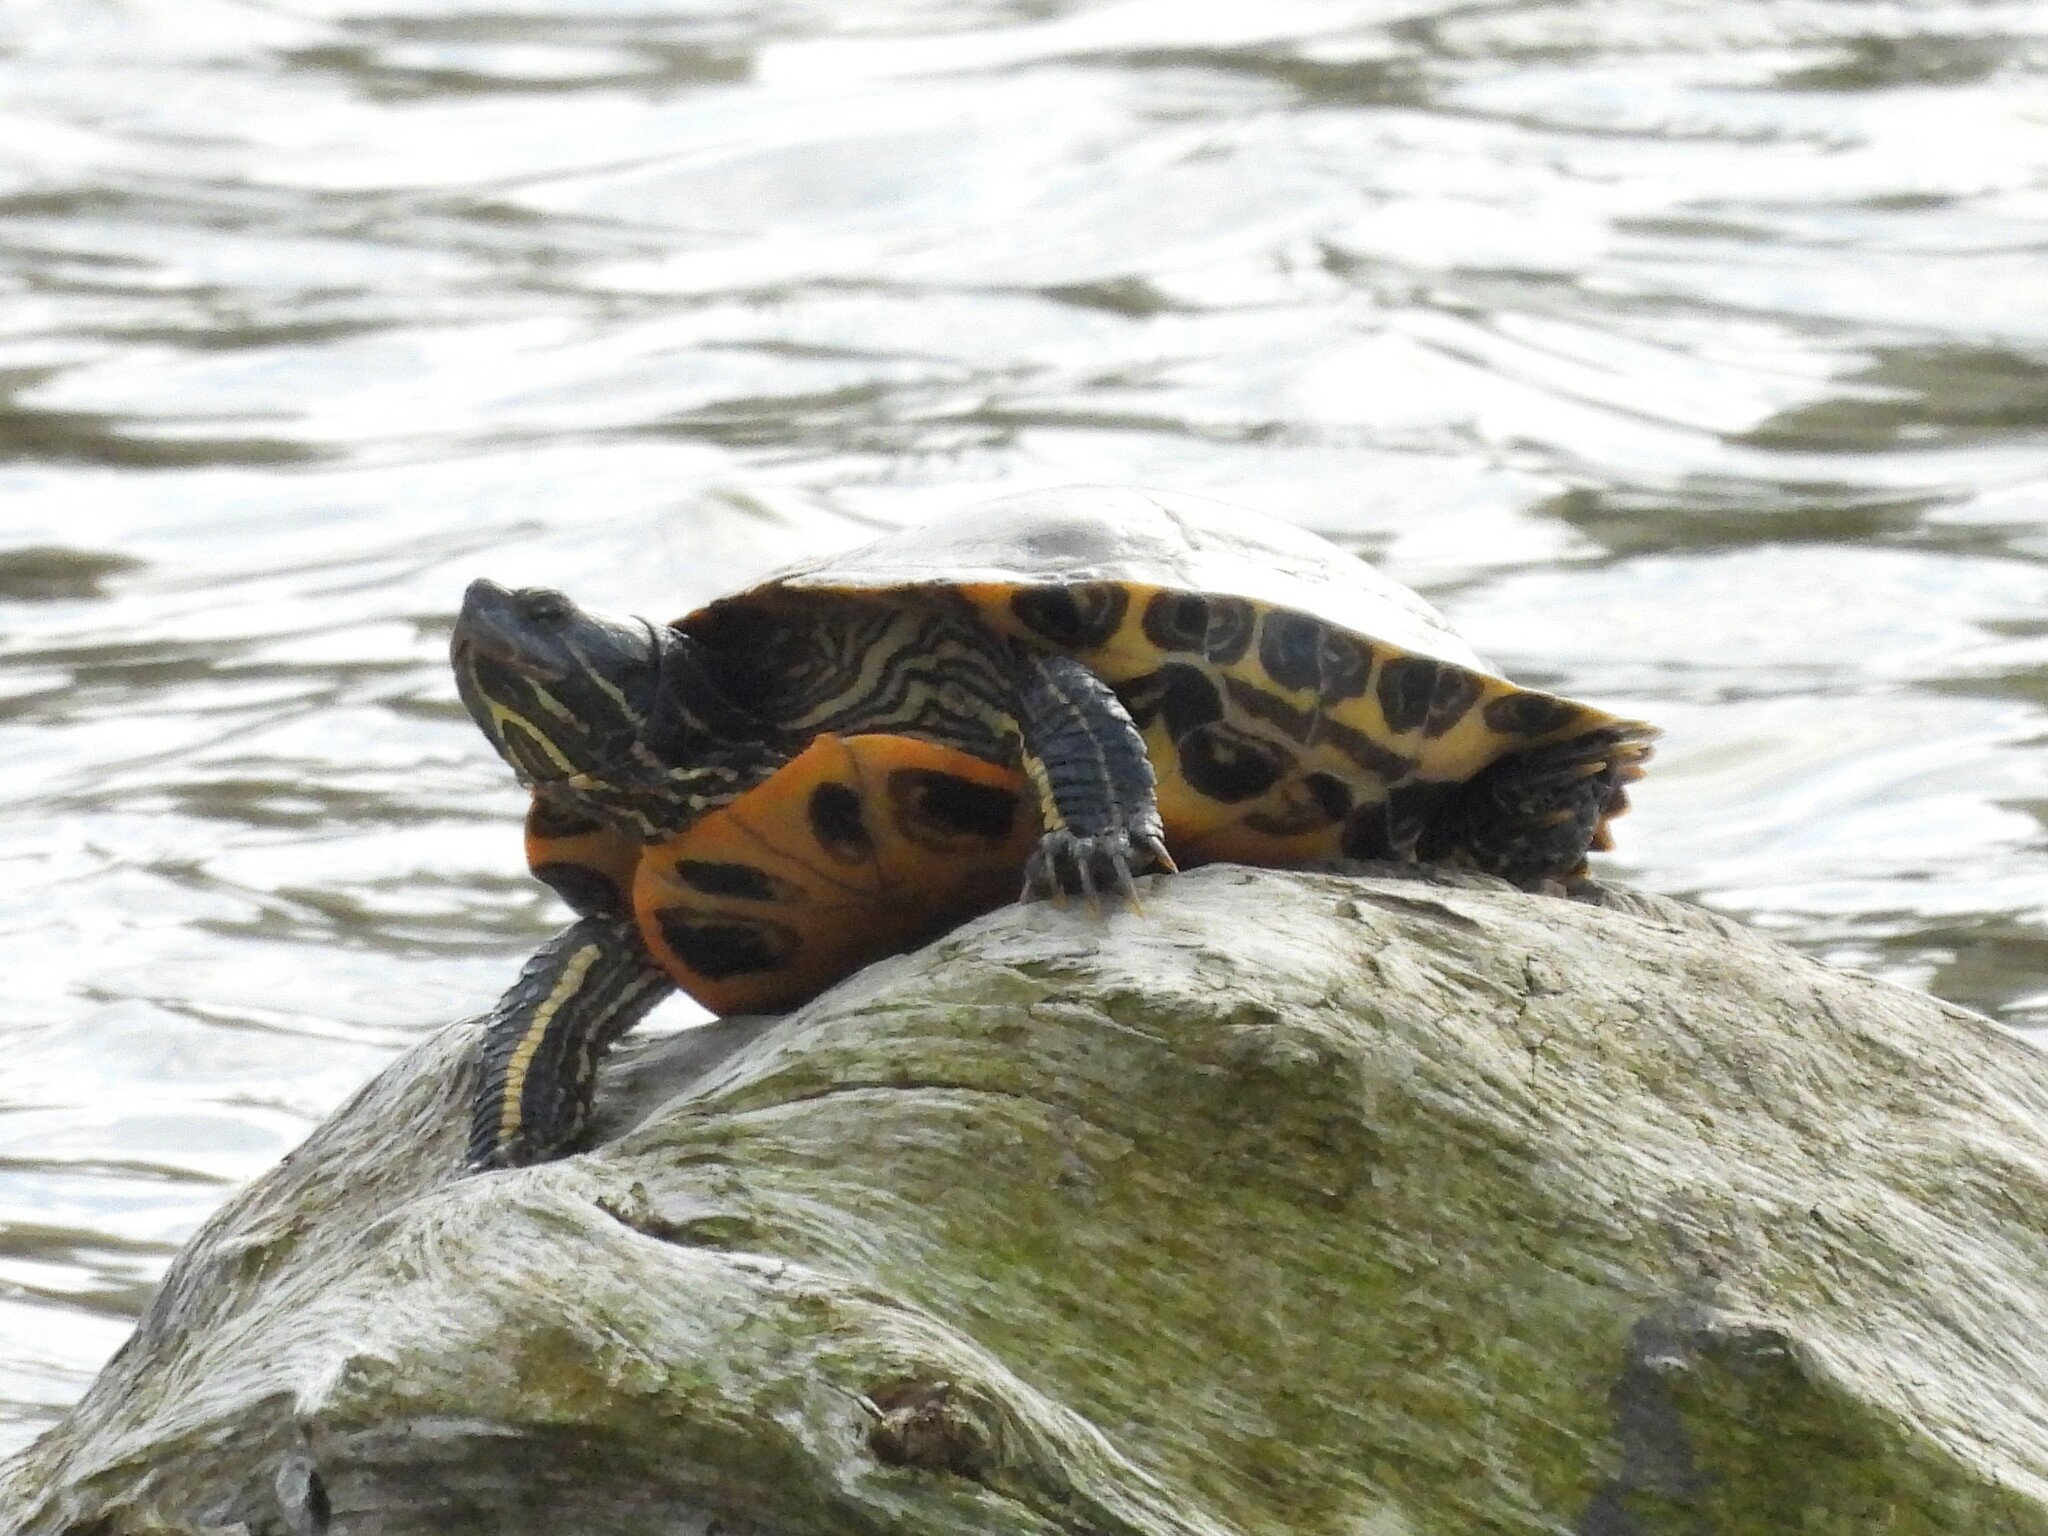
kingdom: Animalia
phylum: Chordata
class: Testudines
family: Emydidae
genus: Trachemys
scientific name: Trachemys scripta
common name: Slider
